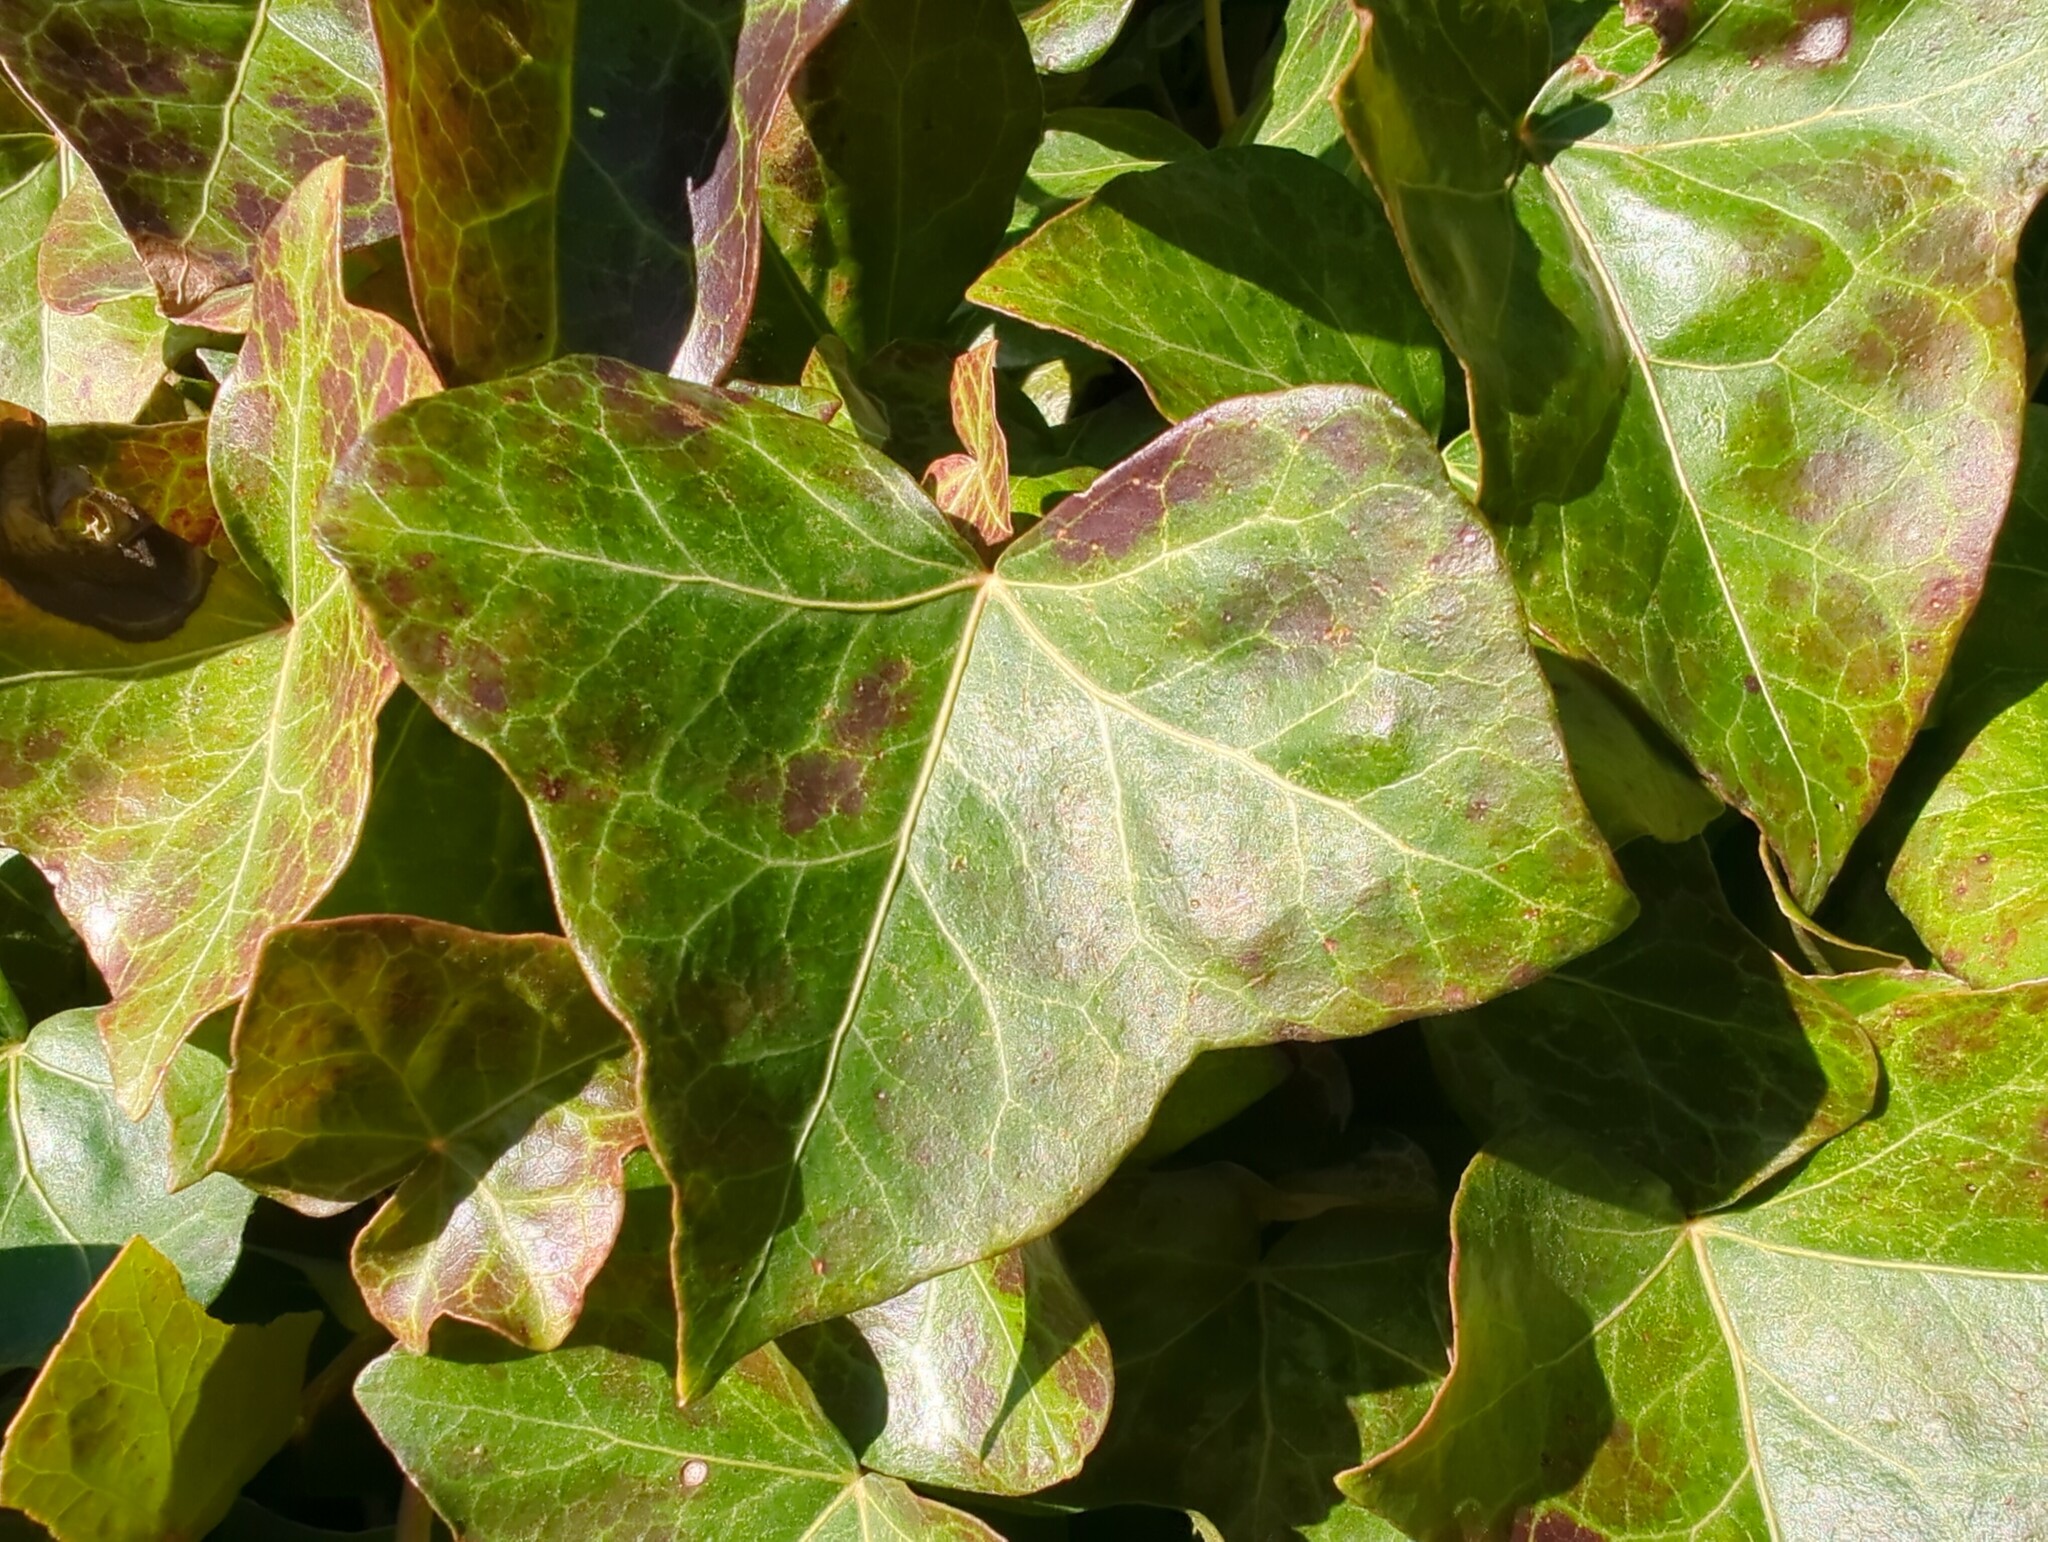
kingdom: Plantae
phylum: Tracheophyta
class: Magnoliopsida
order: Apiales
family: Araliaceae
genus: Hedera
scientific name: Hedera hibernica
